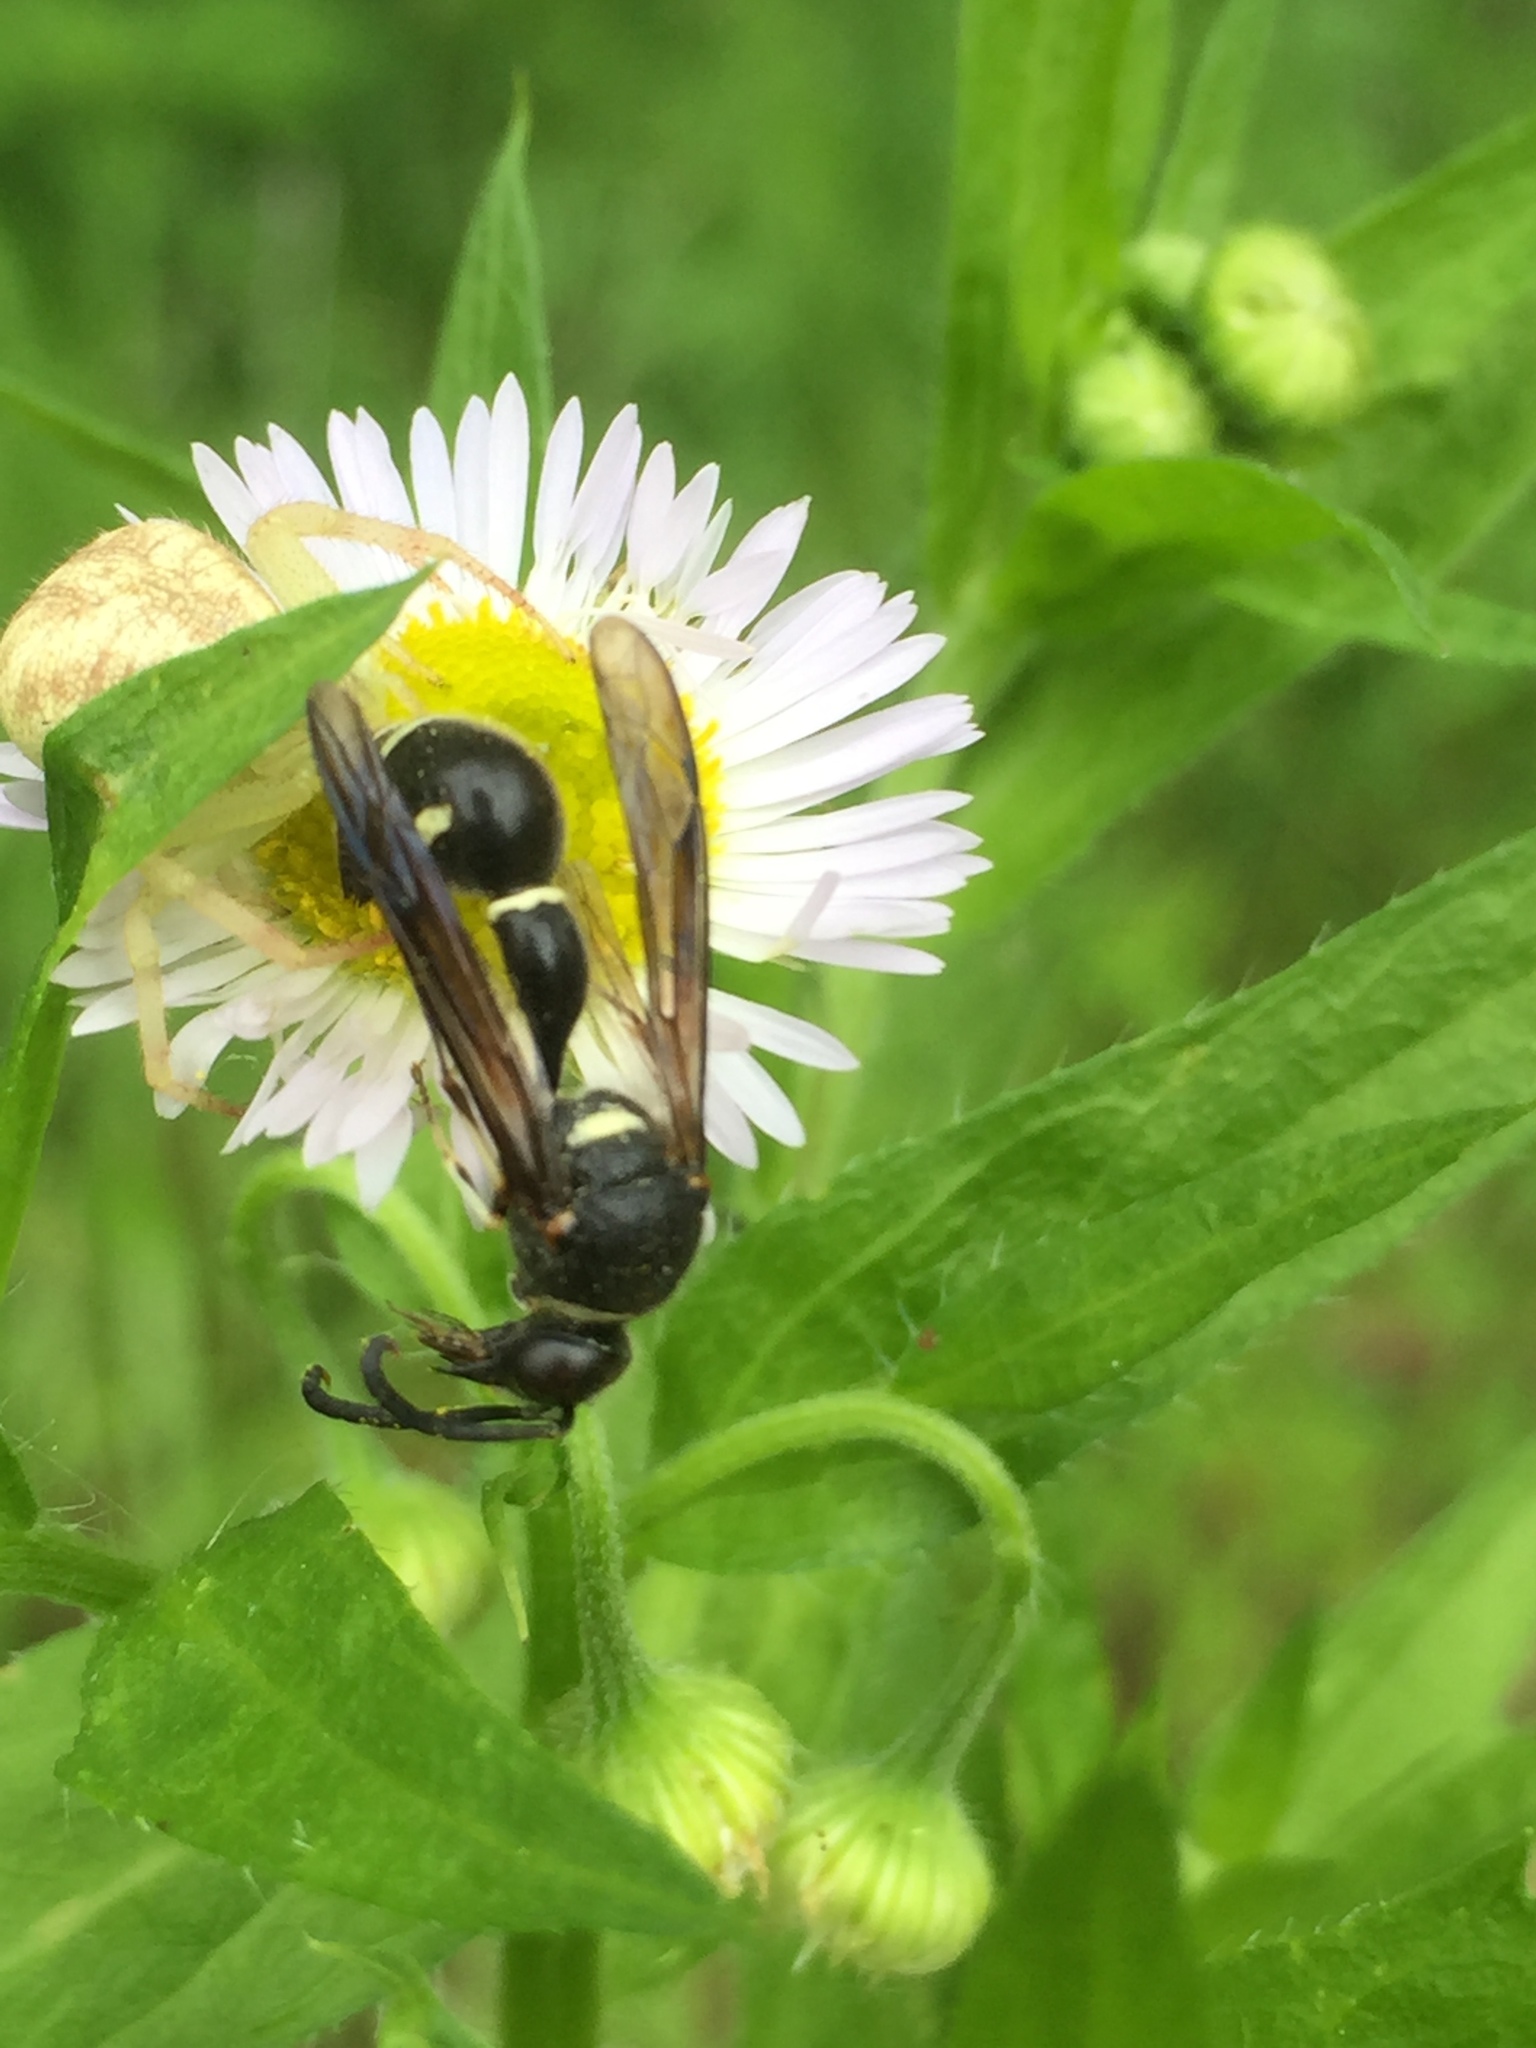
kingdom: Animalia
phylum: Arthropoda
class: Insecta
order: Hymenoptera
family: Vespidae
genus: Eumenes
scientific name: Eumenes fraternus
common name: Fraternal potter wasp
